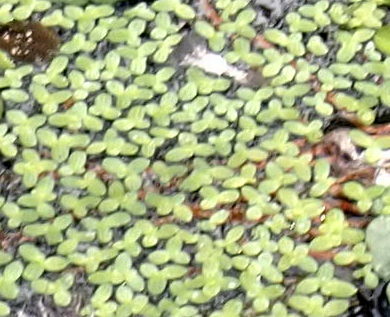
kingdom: Plantae
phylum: Tracheophyta
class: Liliopsida
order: Alismatales
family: Araceae
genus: Lemna
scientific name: Lemna minor
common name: Common duckweed
